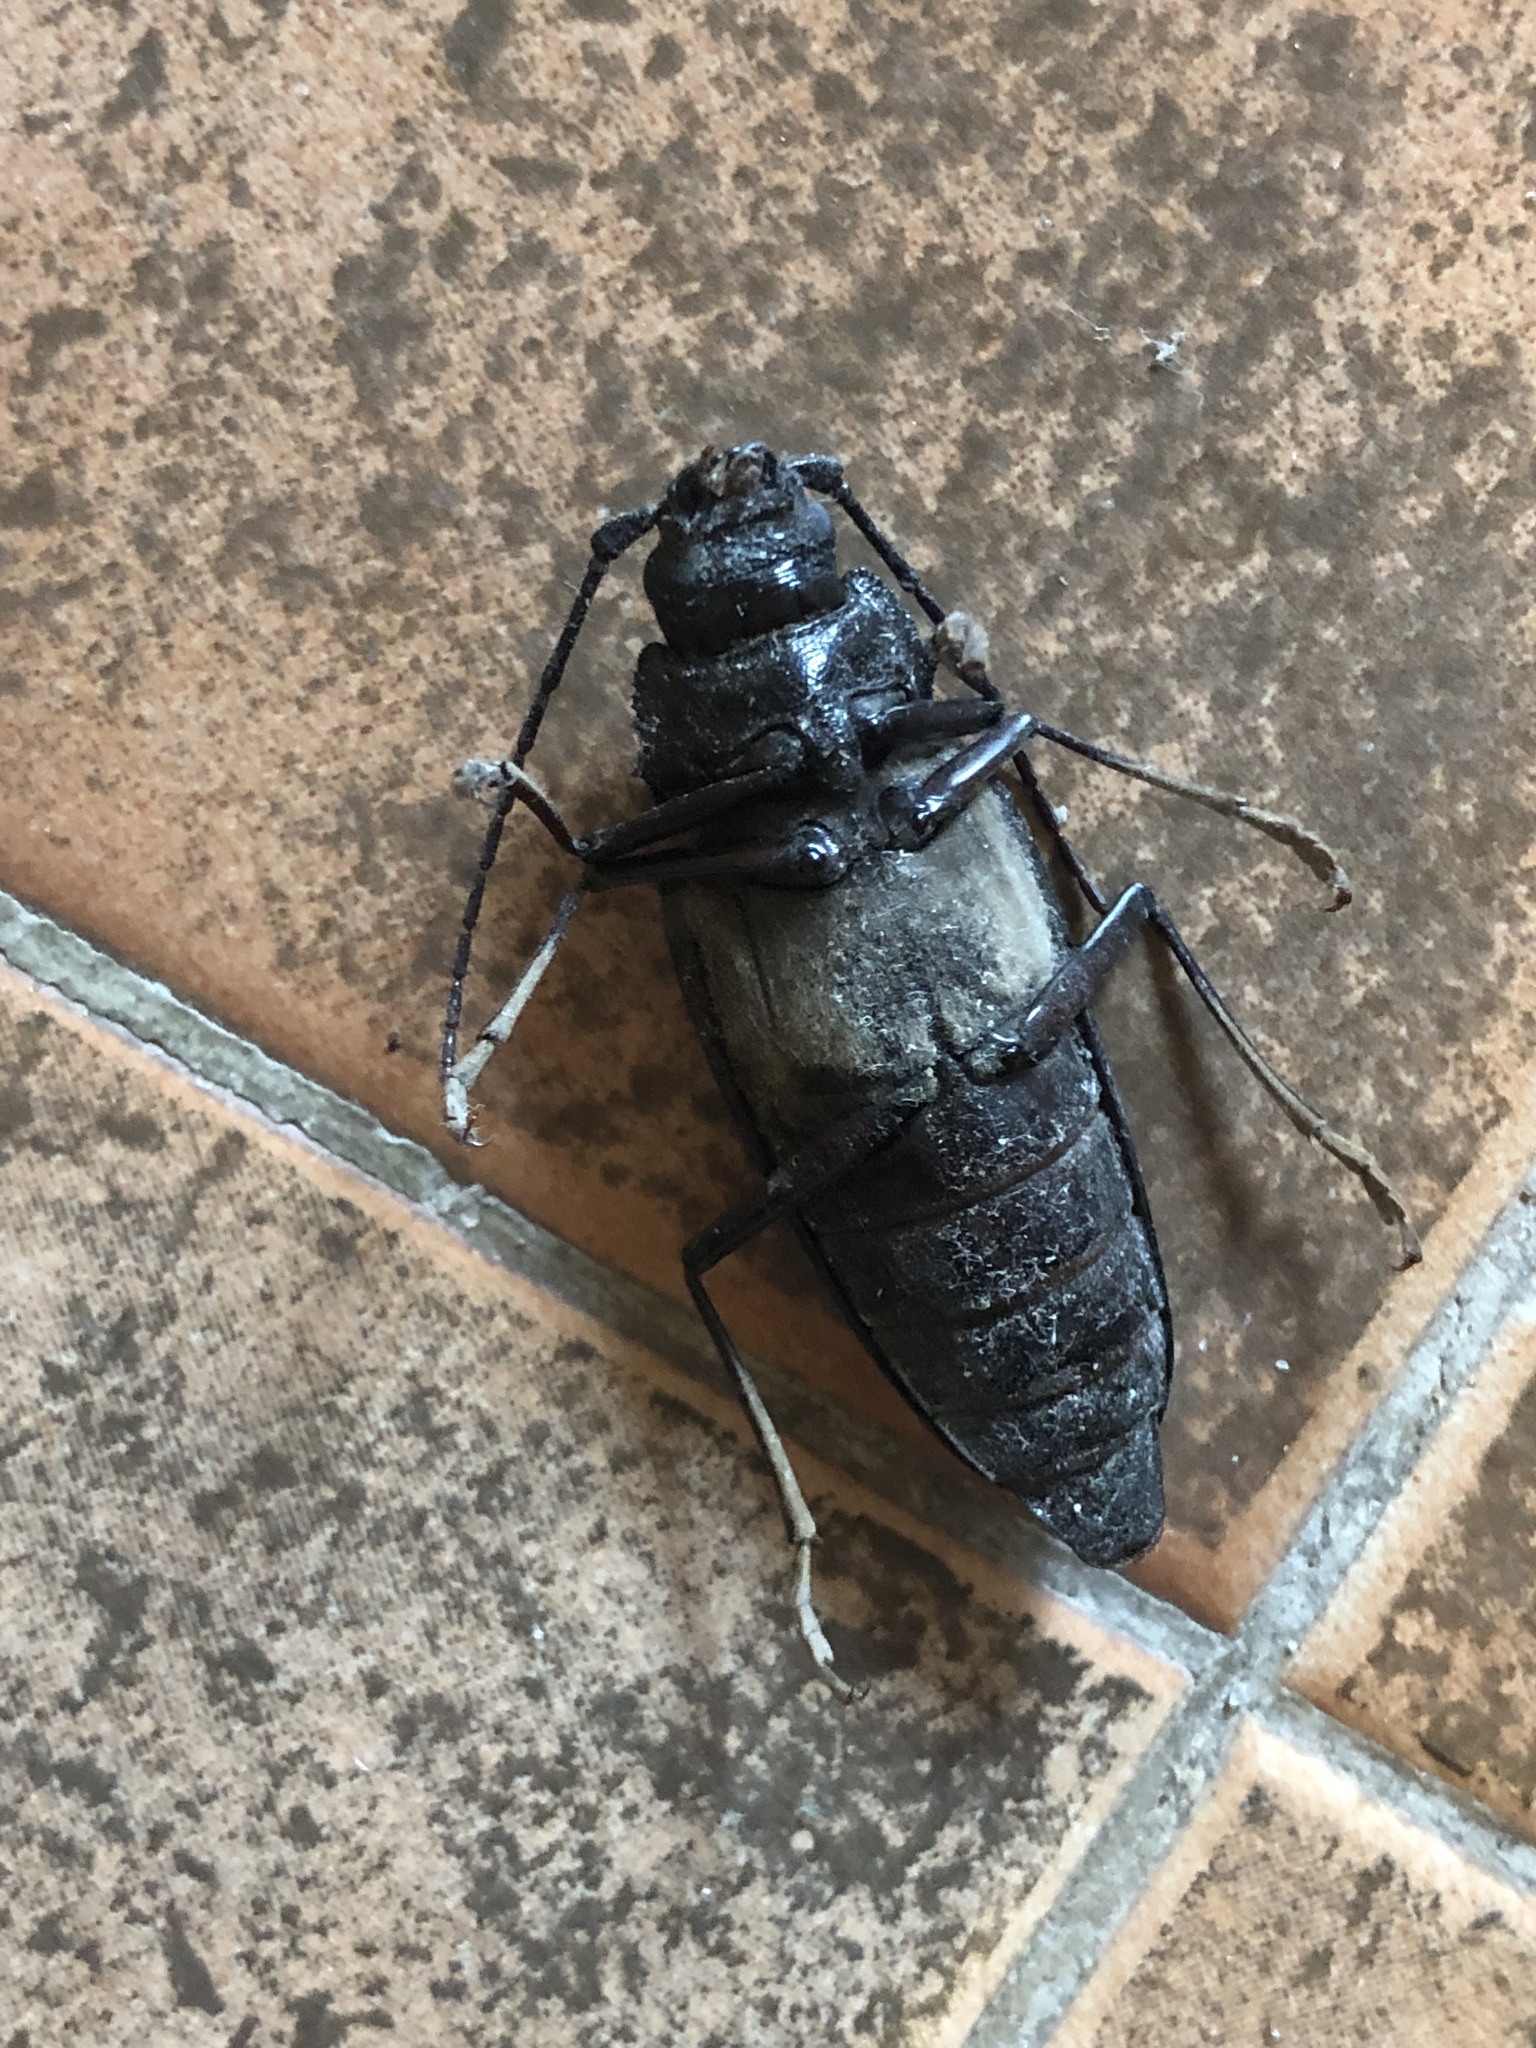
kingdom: Animalia
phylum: Arthropoda
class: Insecta
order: Coleoptera
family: Cerambycidae
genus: Ergates
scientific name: Ergates faber
